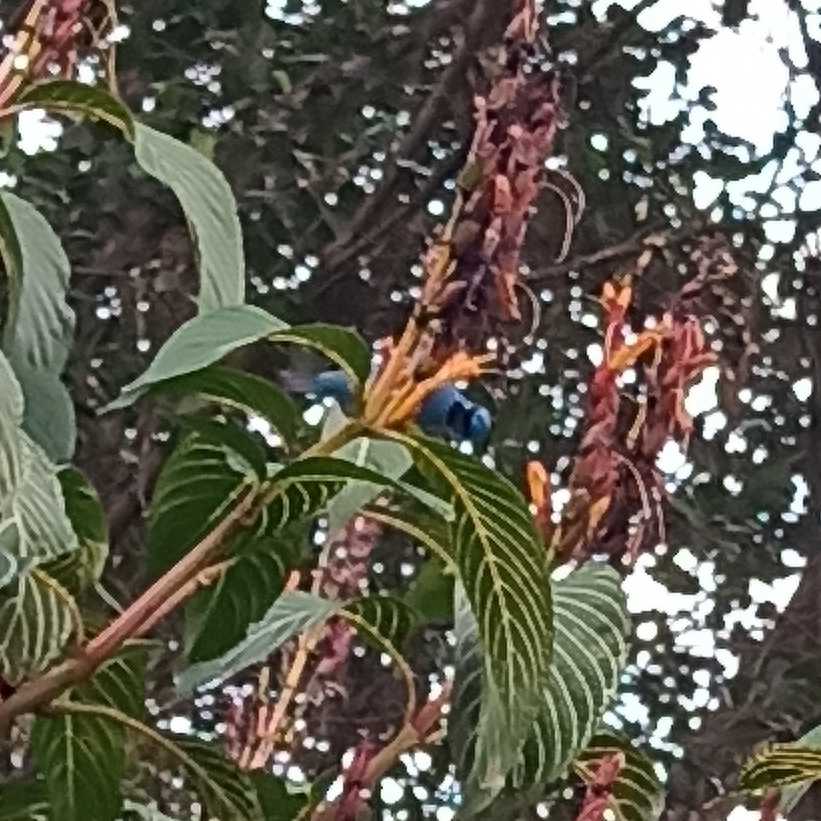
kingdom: Animalia
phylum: Chordata
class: Aves
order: Passeriformes
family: Thraupidae
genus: Dacnis
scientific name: Dacnis cayana
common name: Blue dacnis
